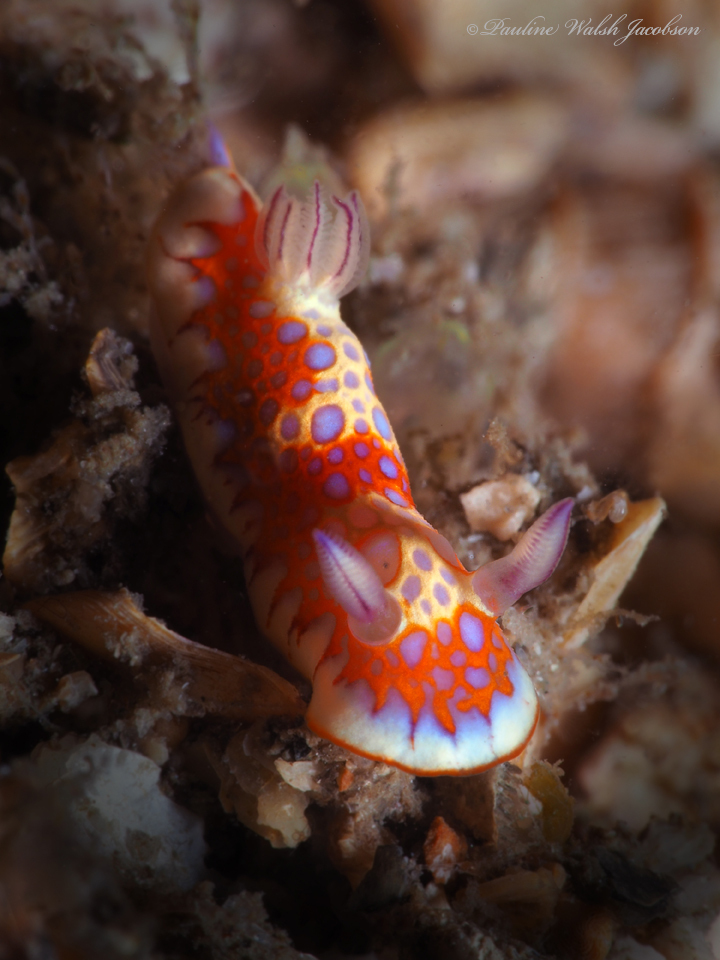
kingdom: Animalia
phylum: Mollusca
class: Gastropoda
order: Nudibranchia
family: Chromodorididae
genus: Felimida
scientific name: Felimida binza
